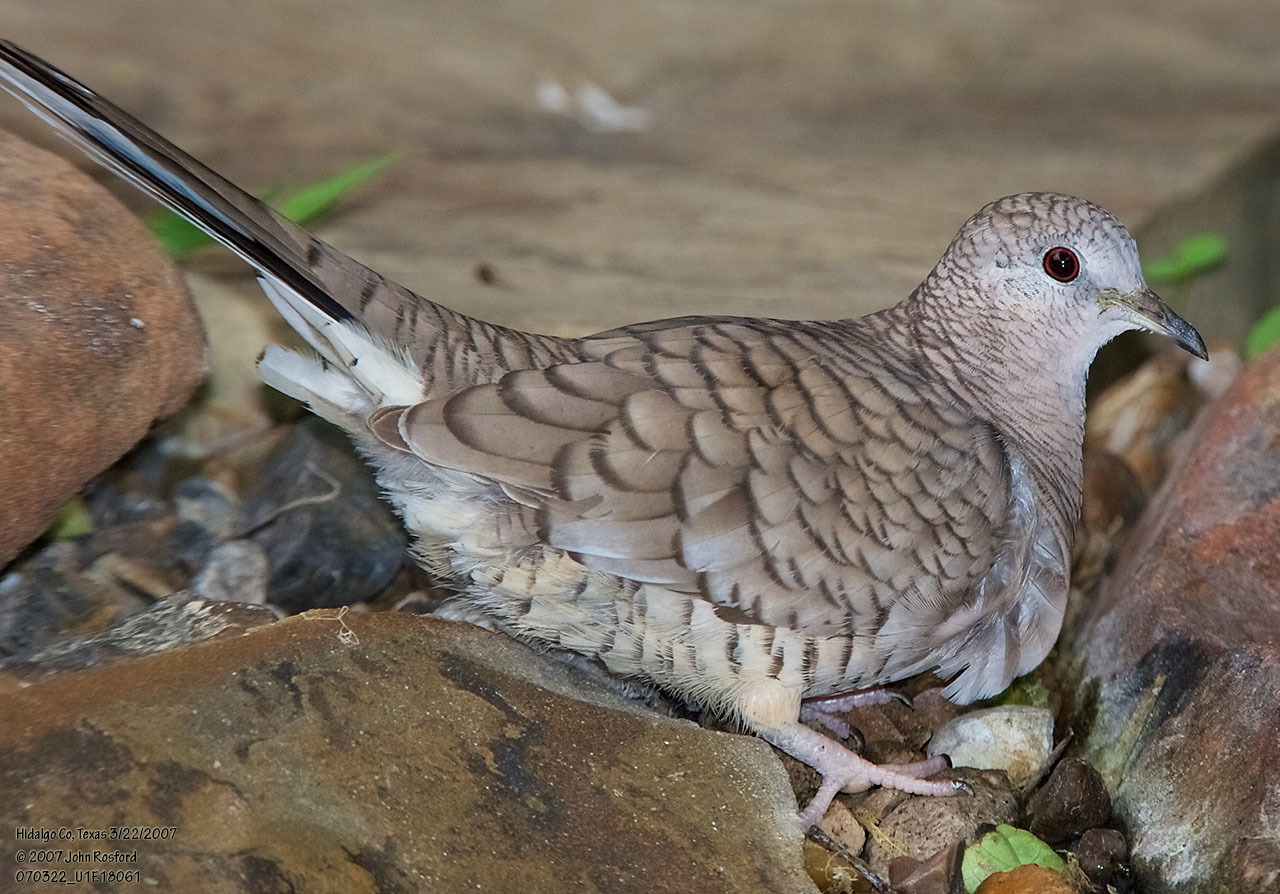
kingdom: Animalia
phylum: Chordata
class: Aves
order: Columbiformes
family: Columbidae
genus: Columbina
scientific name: Columbina inca
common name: Inca dove
